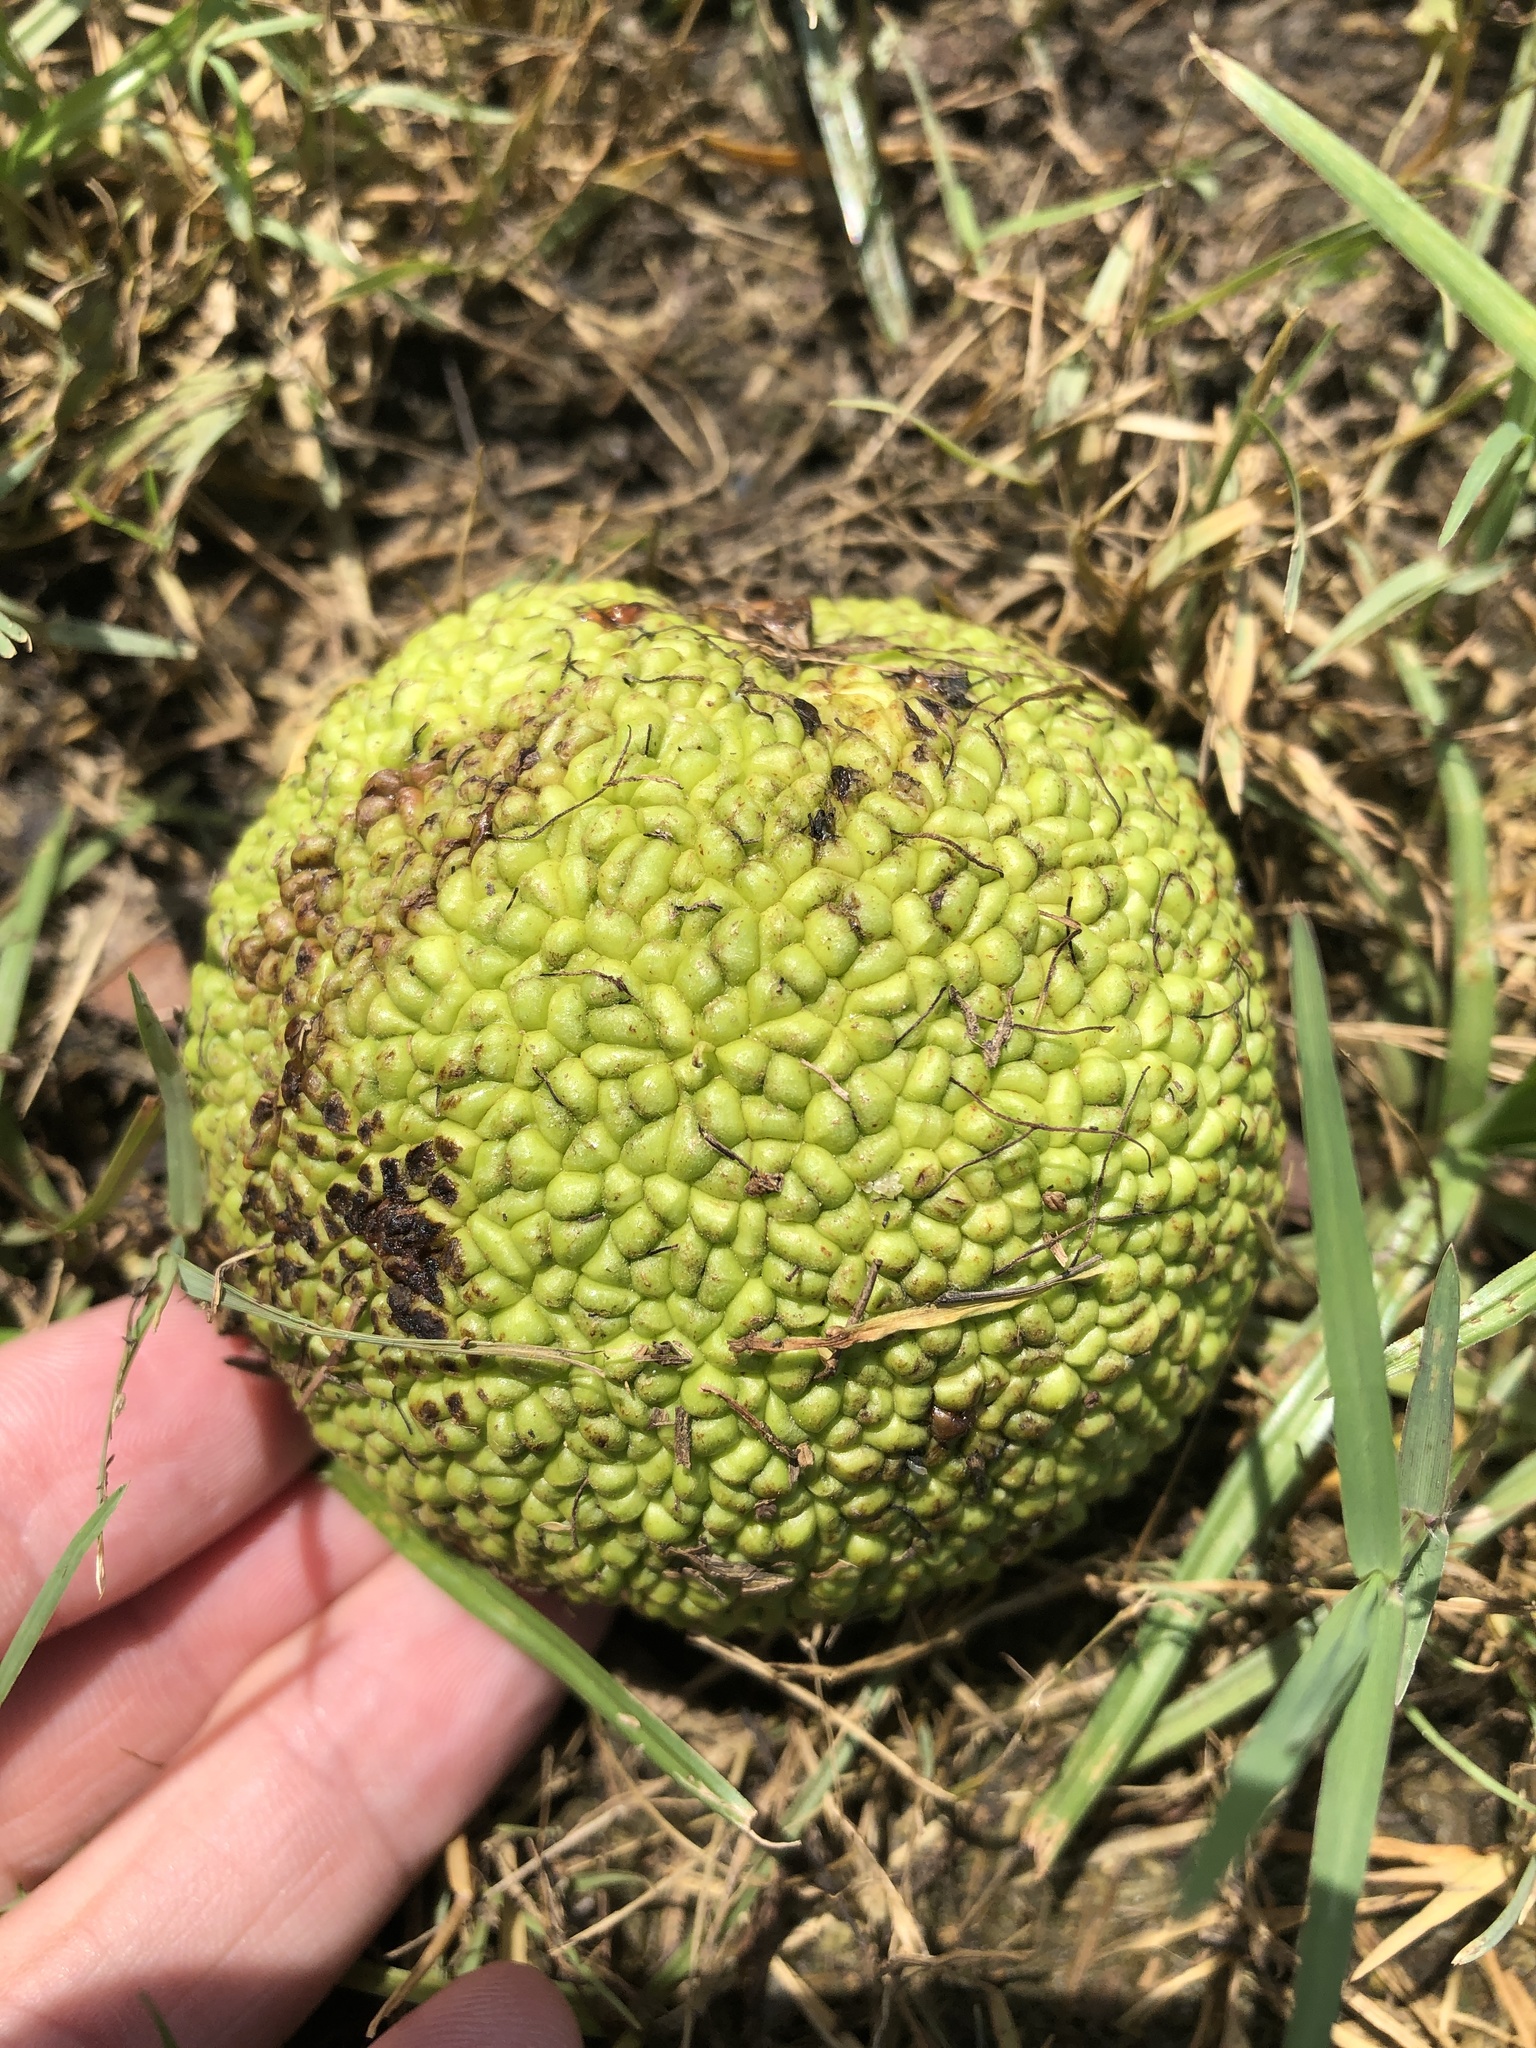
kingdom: Plantae
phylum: Tracheophyta
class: Magnoliopsida
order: Rosales
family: Moraceae
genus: Maclura
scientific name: Maclura pomifera
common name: Osage-orange
